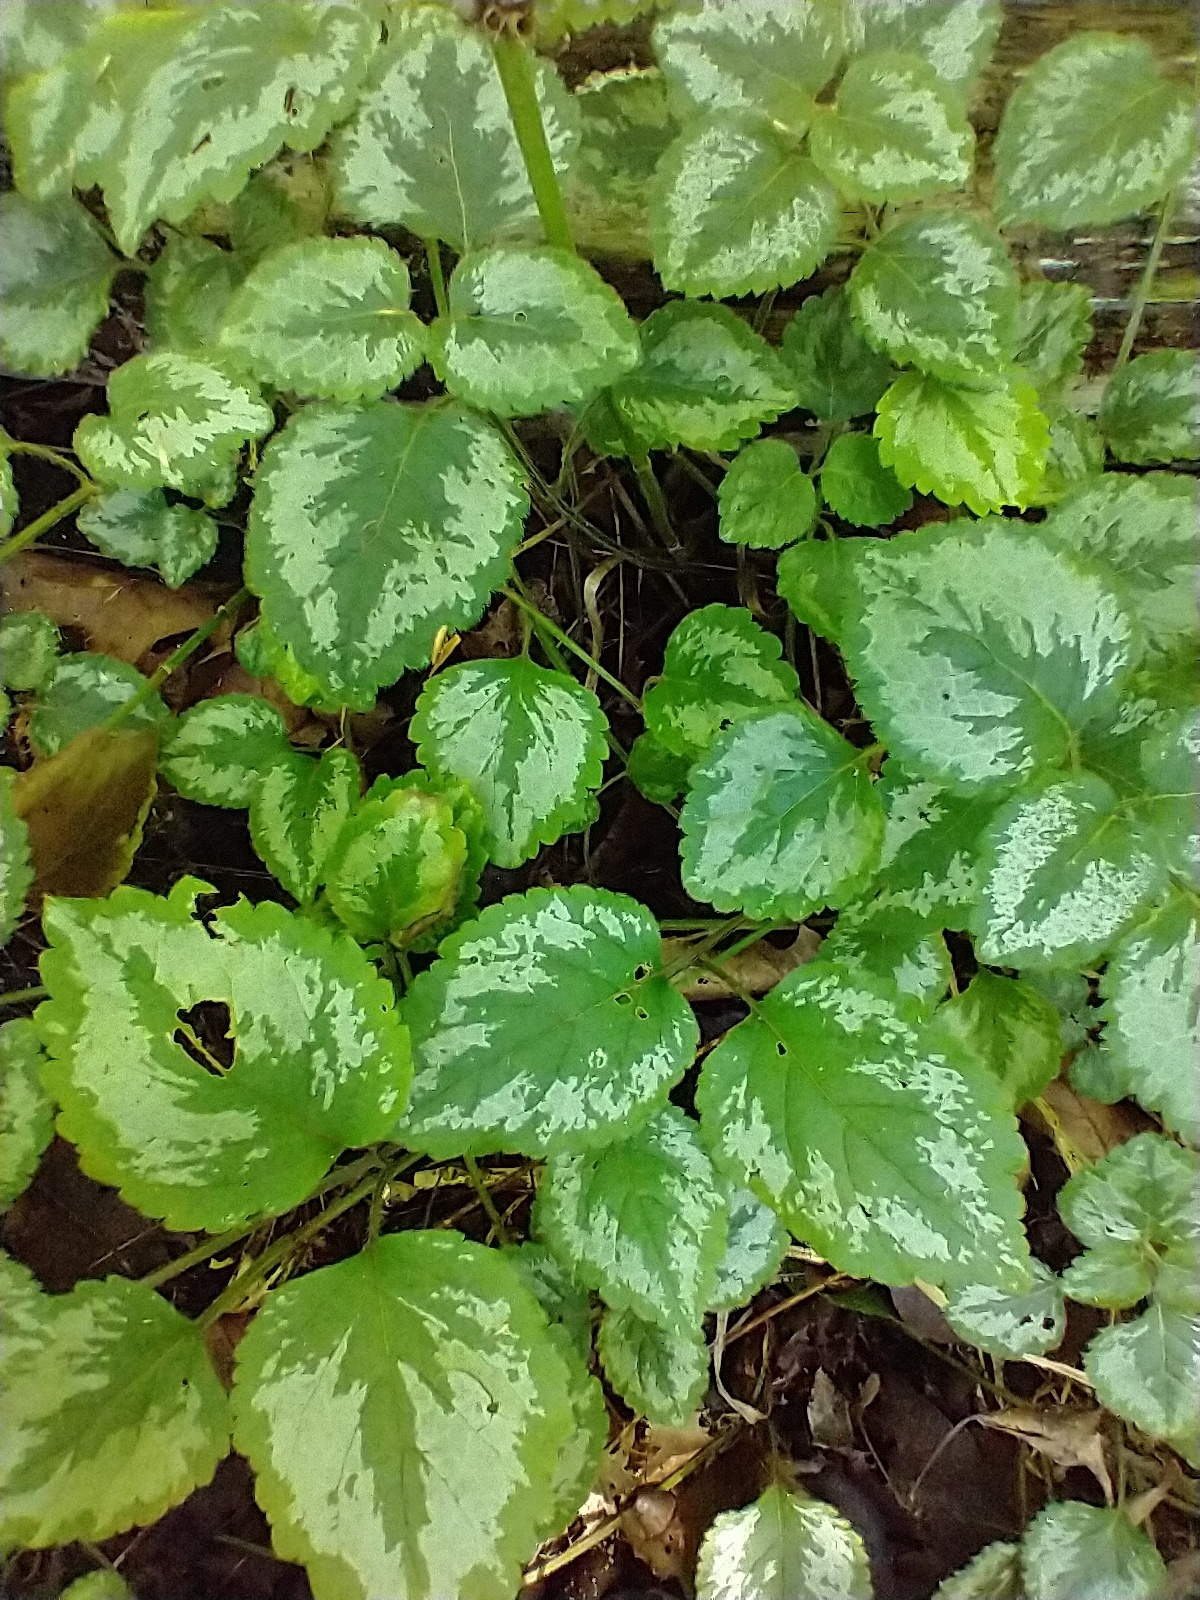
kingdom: Plantae
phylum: Tracheophyta
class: Magnoliopsida
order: Lamiales
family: Lamiaceae
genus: Lamium
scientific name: Lamium galeobdolon
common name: Yellow archangel
